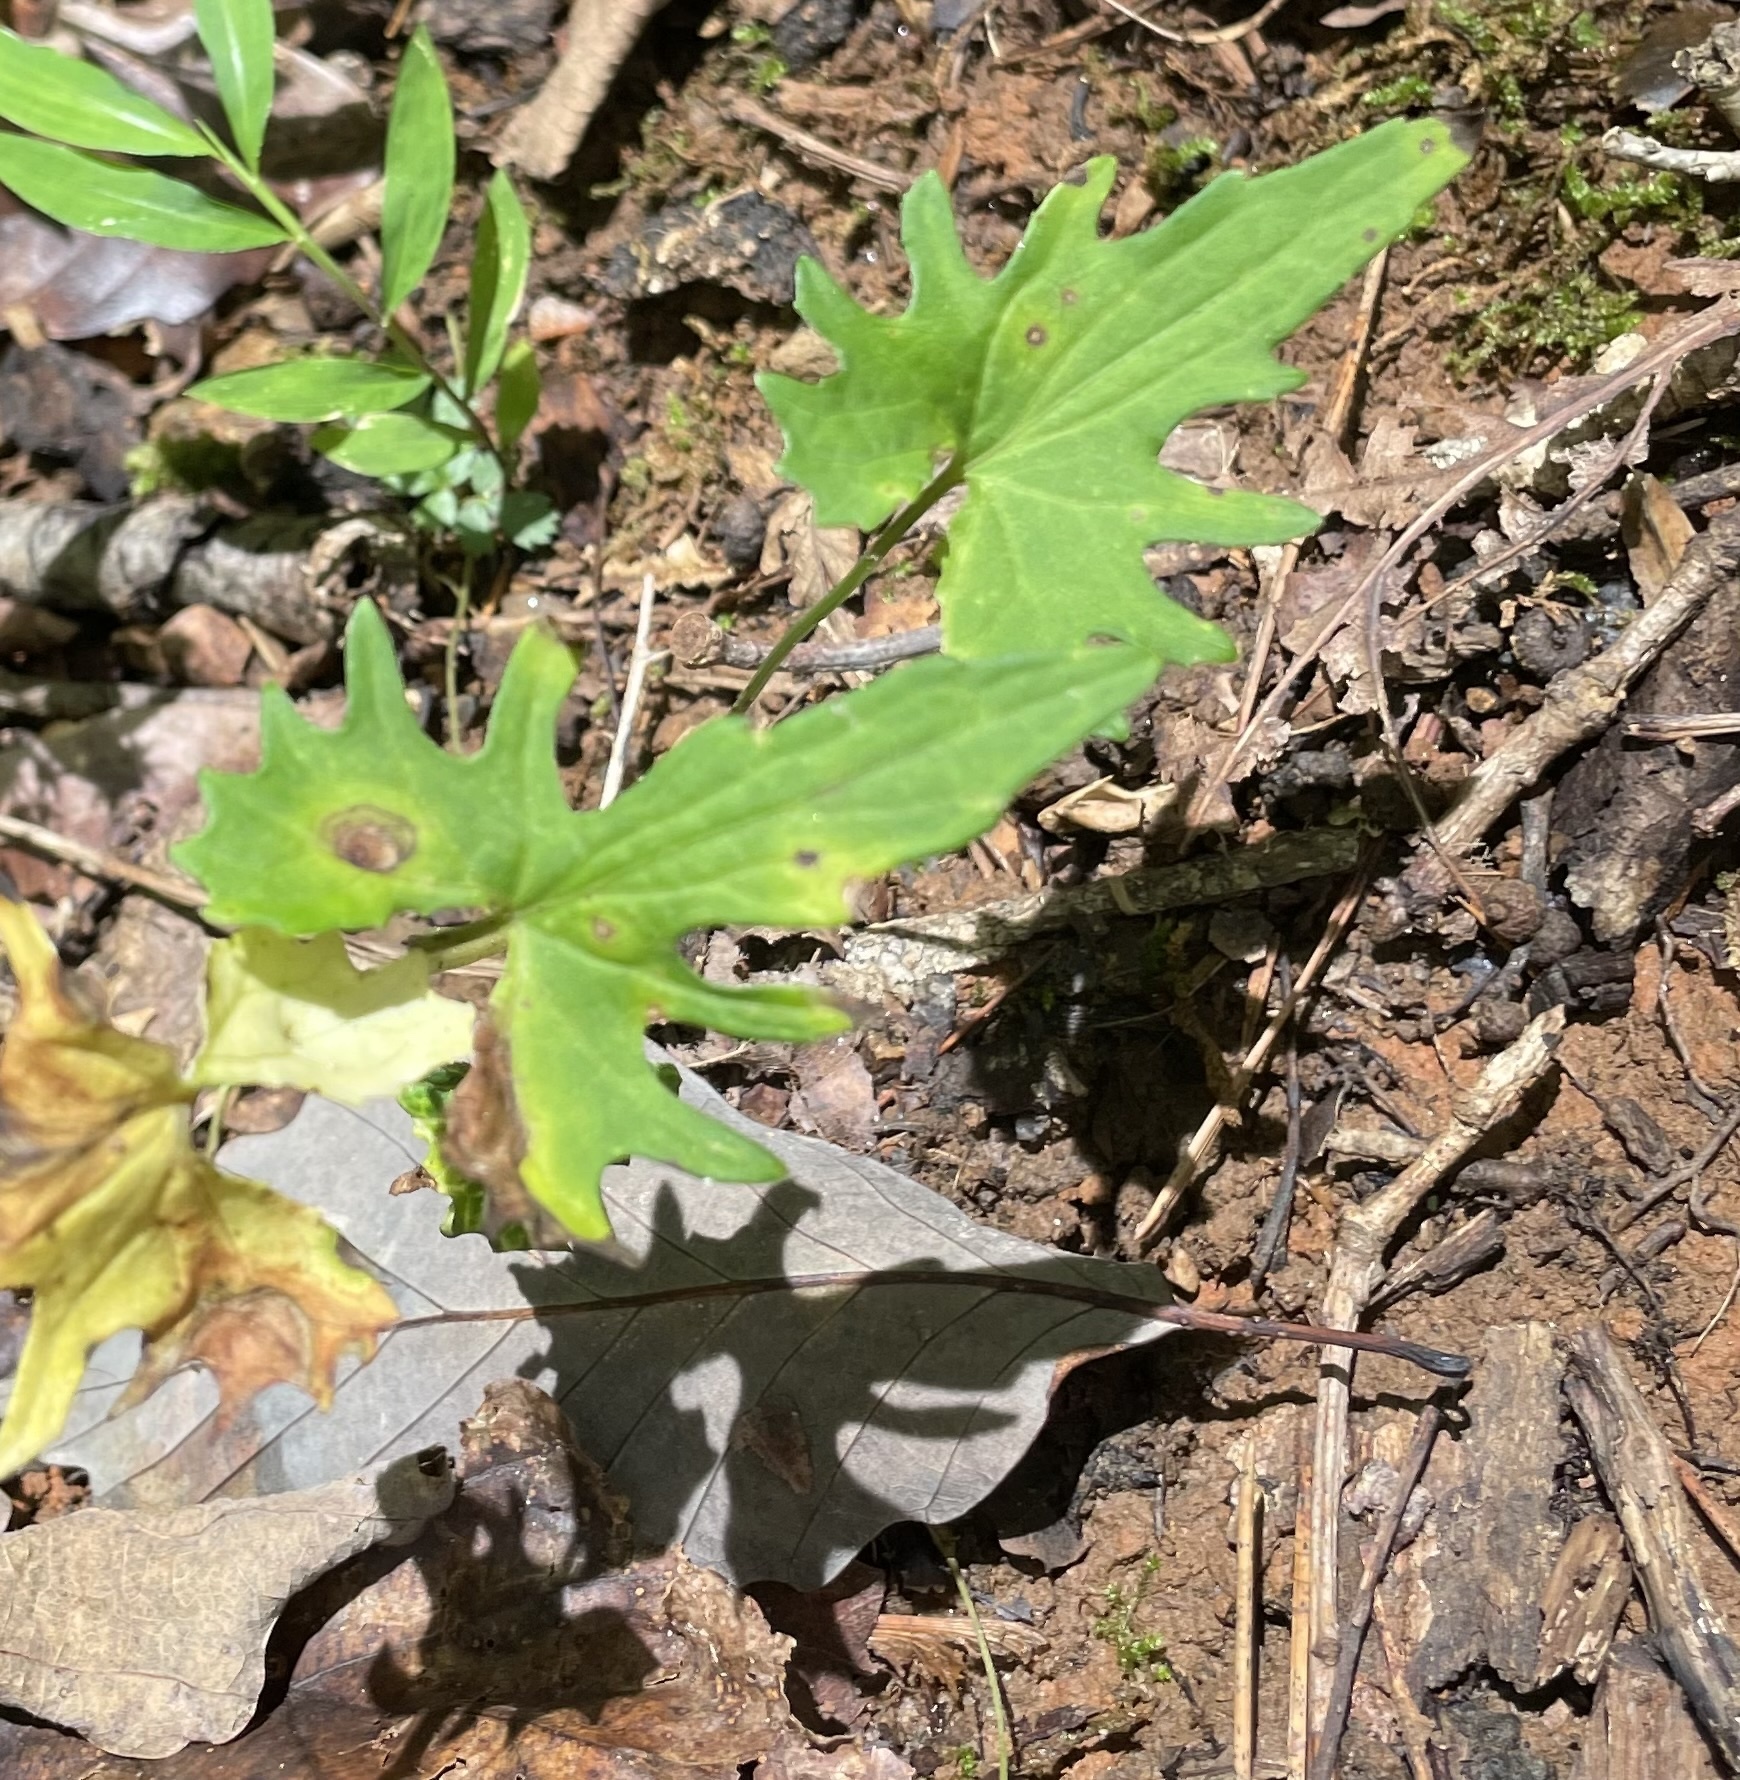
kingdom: Plantae
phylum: Tracheophyta
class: Magnoliopsida
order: Malpighiales
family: Violaceae
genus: Viola
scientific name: Viola subsinuata
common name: Wood violet
